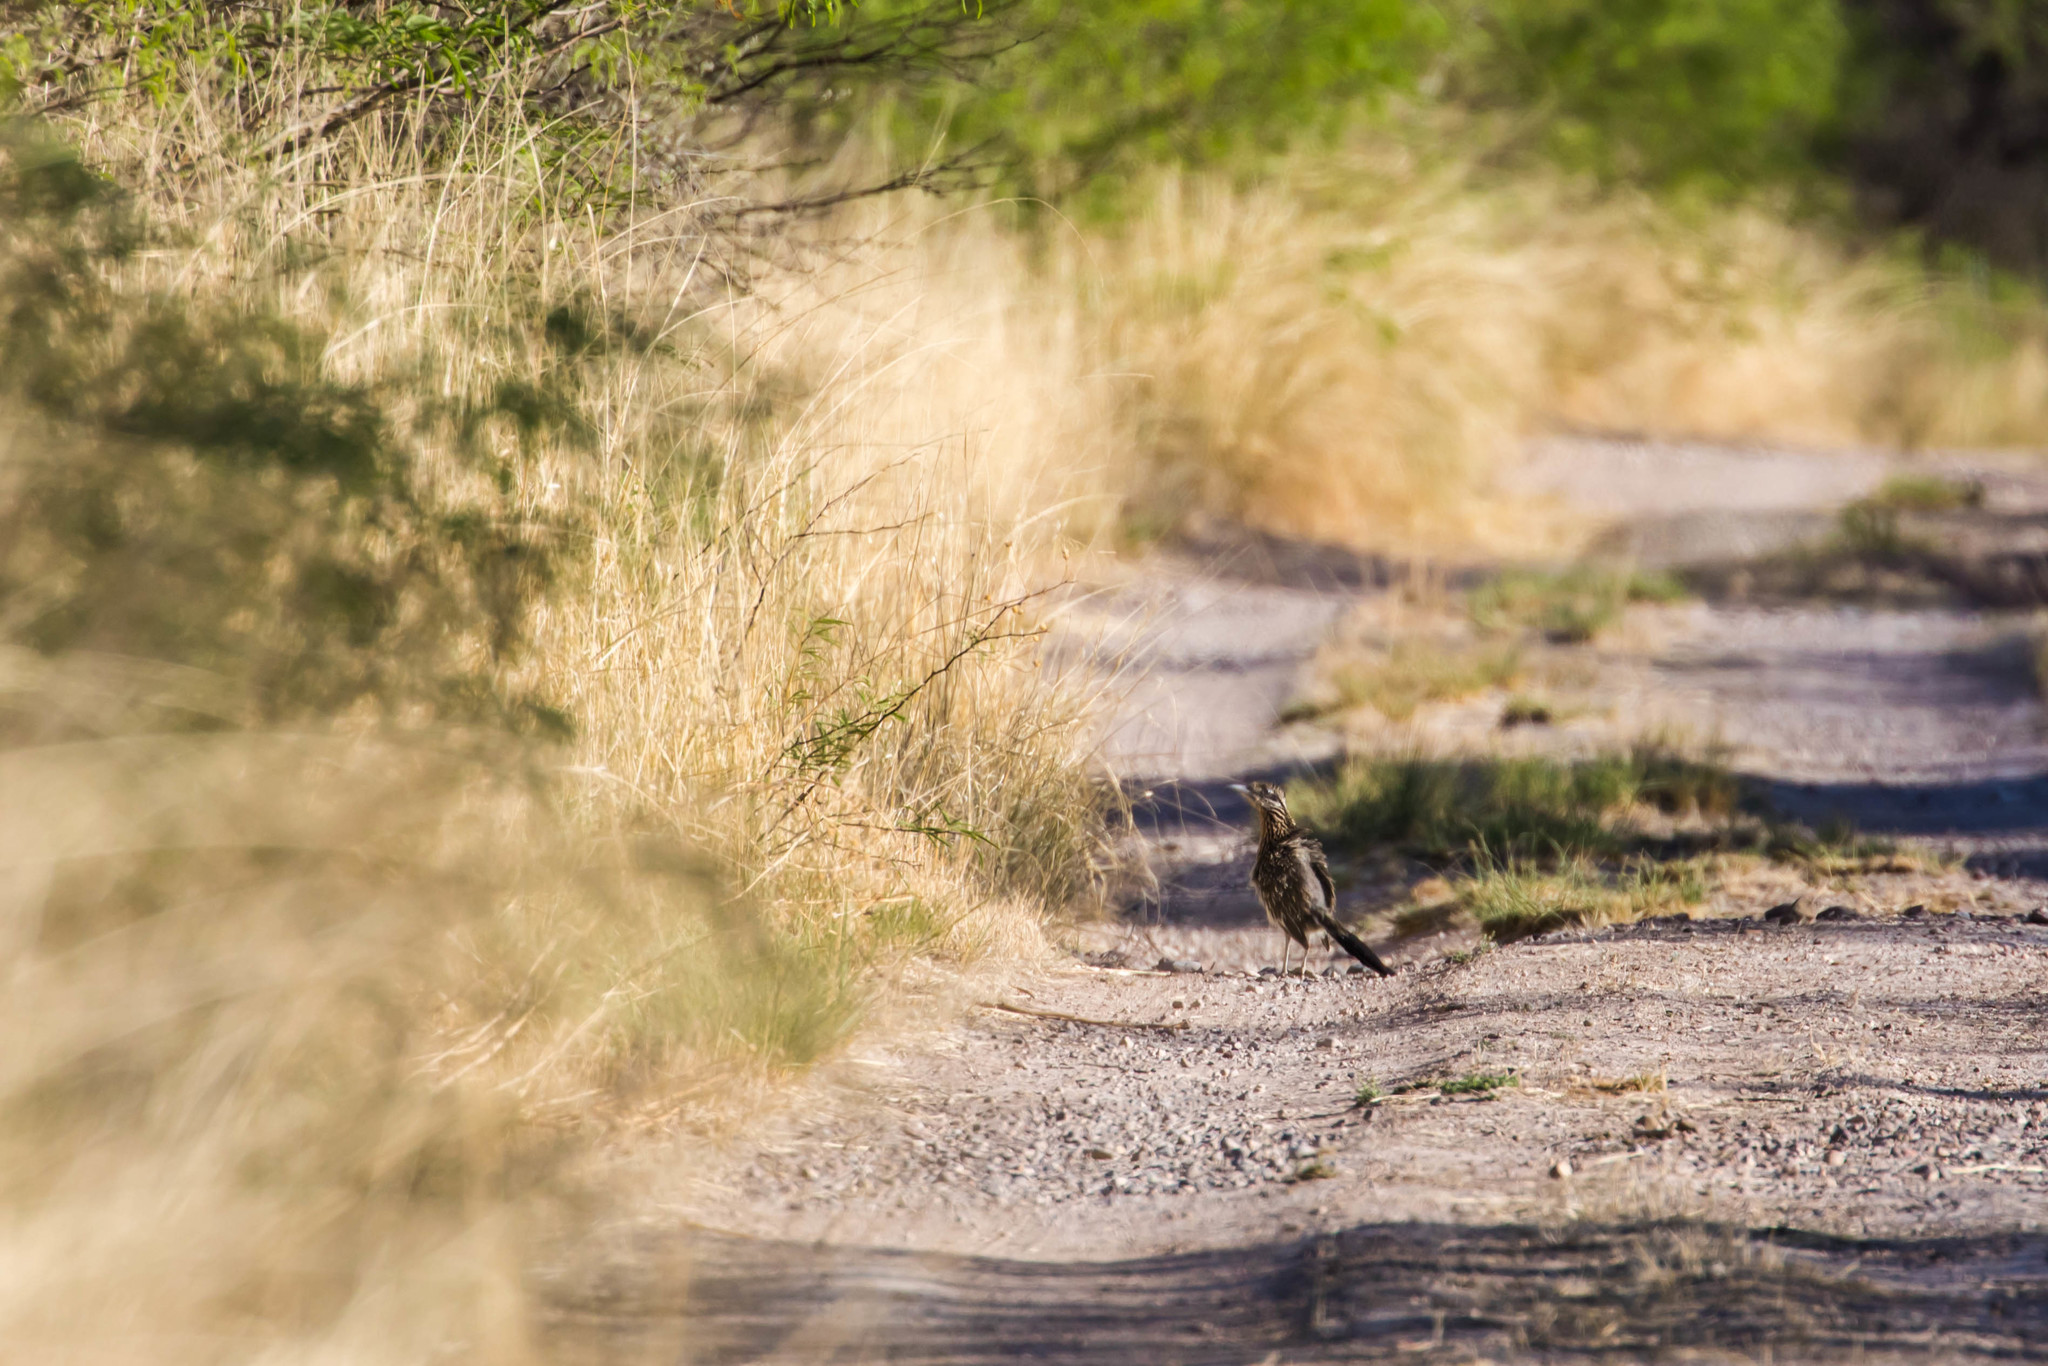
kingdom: Animalia
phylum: Chordata
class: Aves
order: Cuculiformes
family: Cuculidae
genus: Geococcyx
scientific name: Geococcyx californianus
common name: Greater roadrunner
